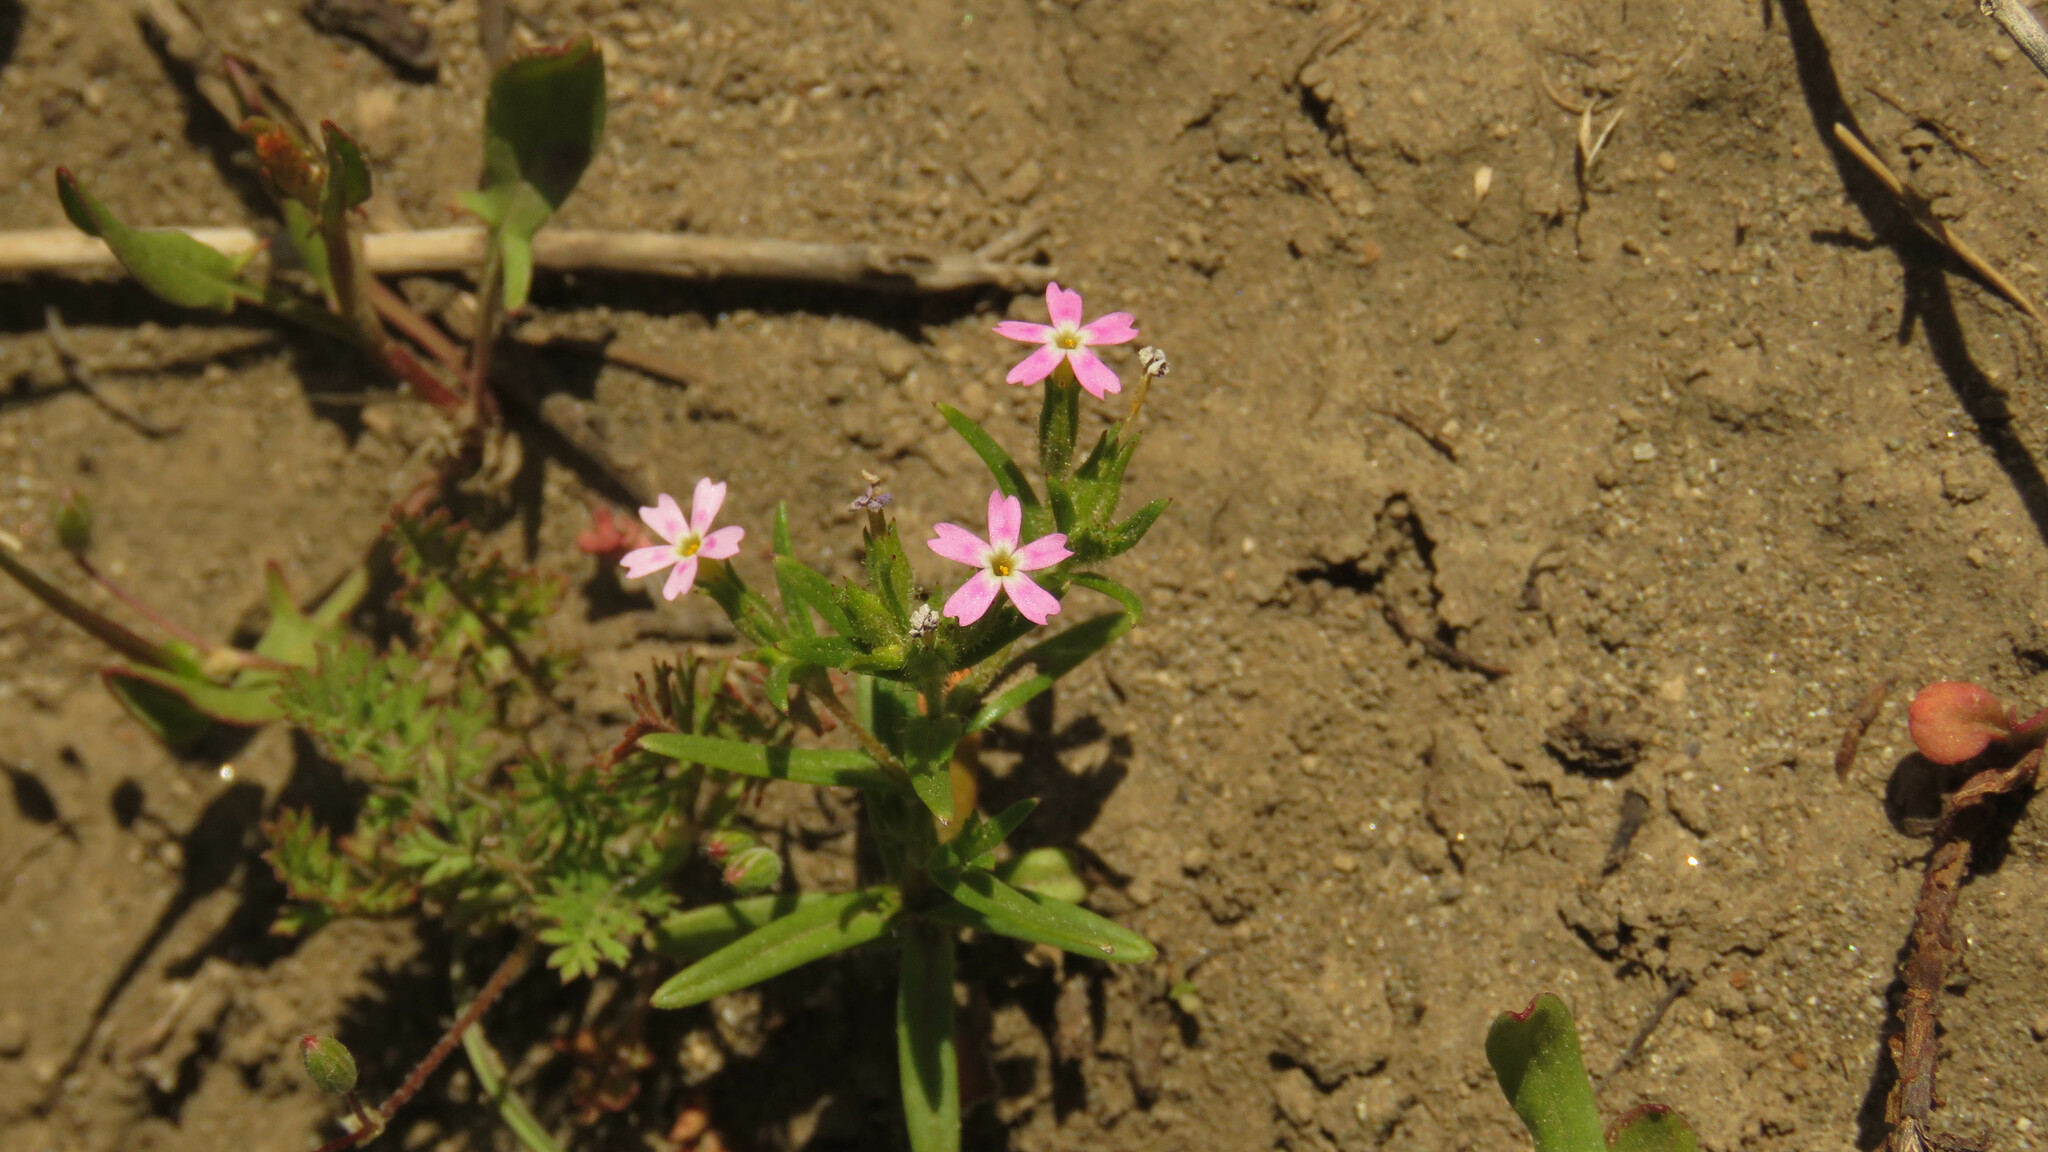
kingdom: Plantae
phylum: Tracheophyta
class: Magnoliopsida
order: Ericales
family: Polemoniaceae
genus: Phlox
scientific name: Phlox gracilis
